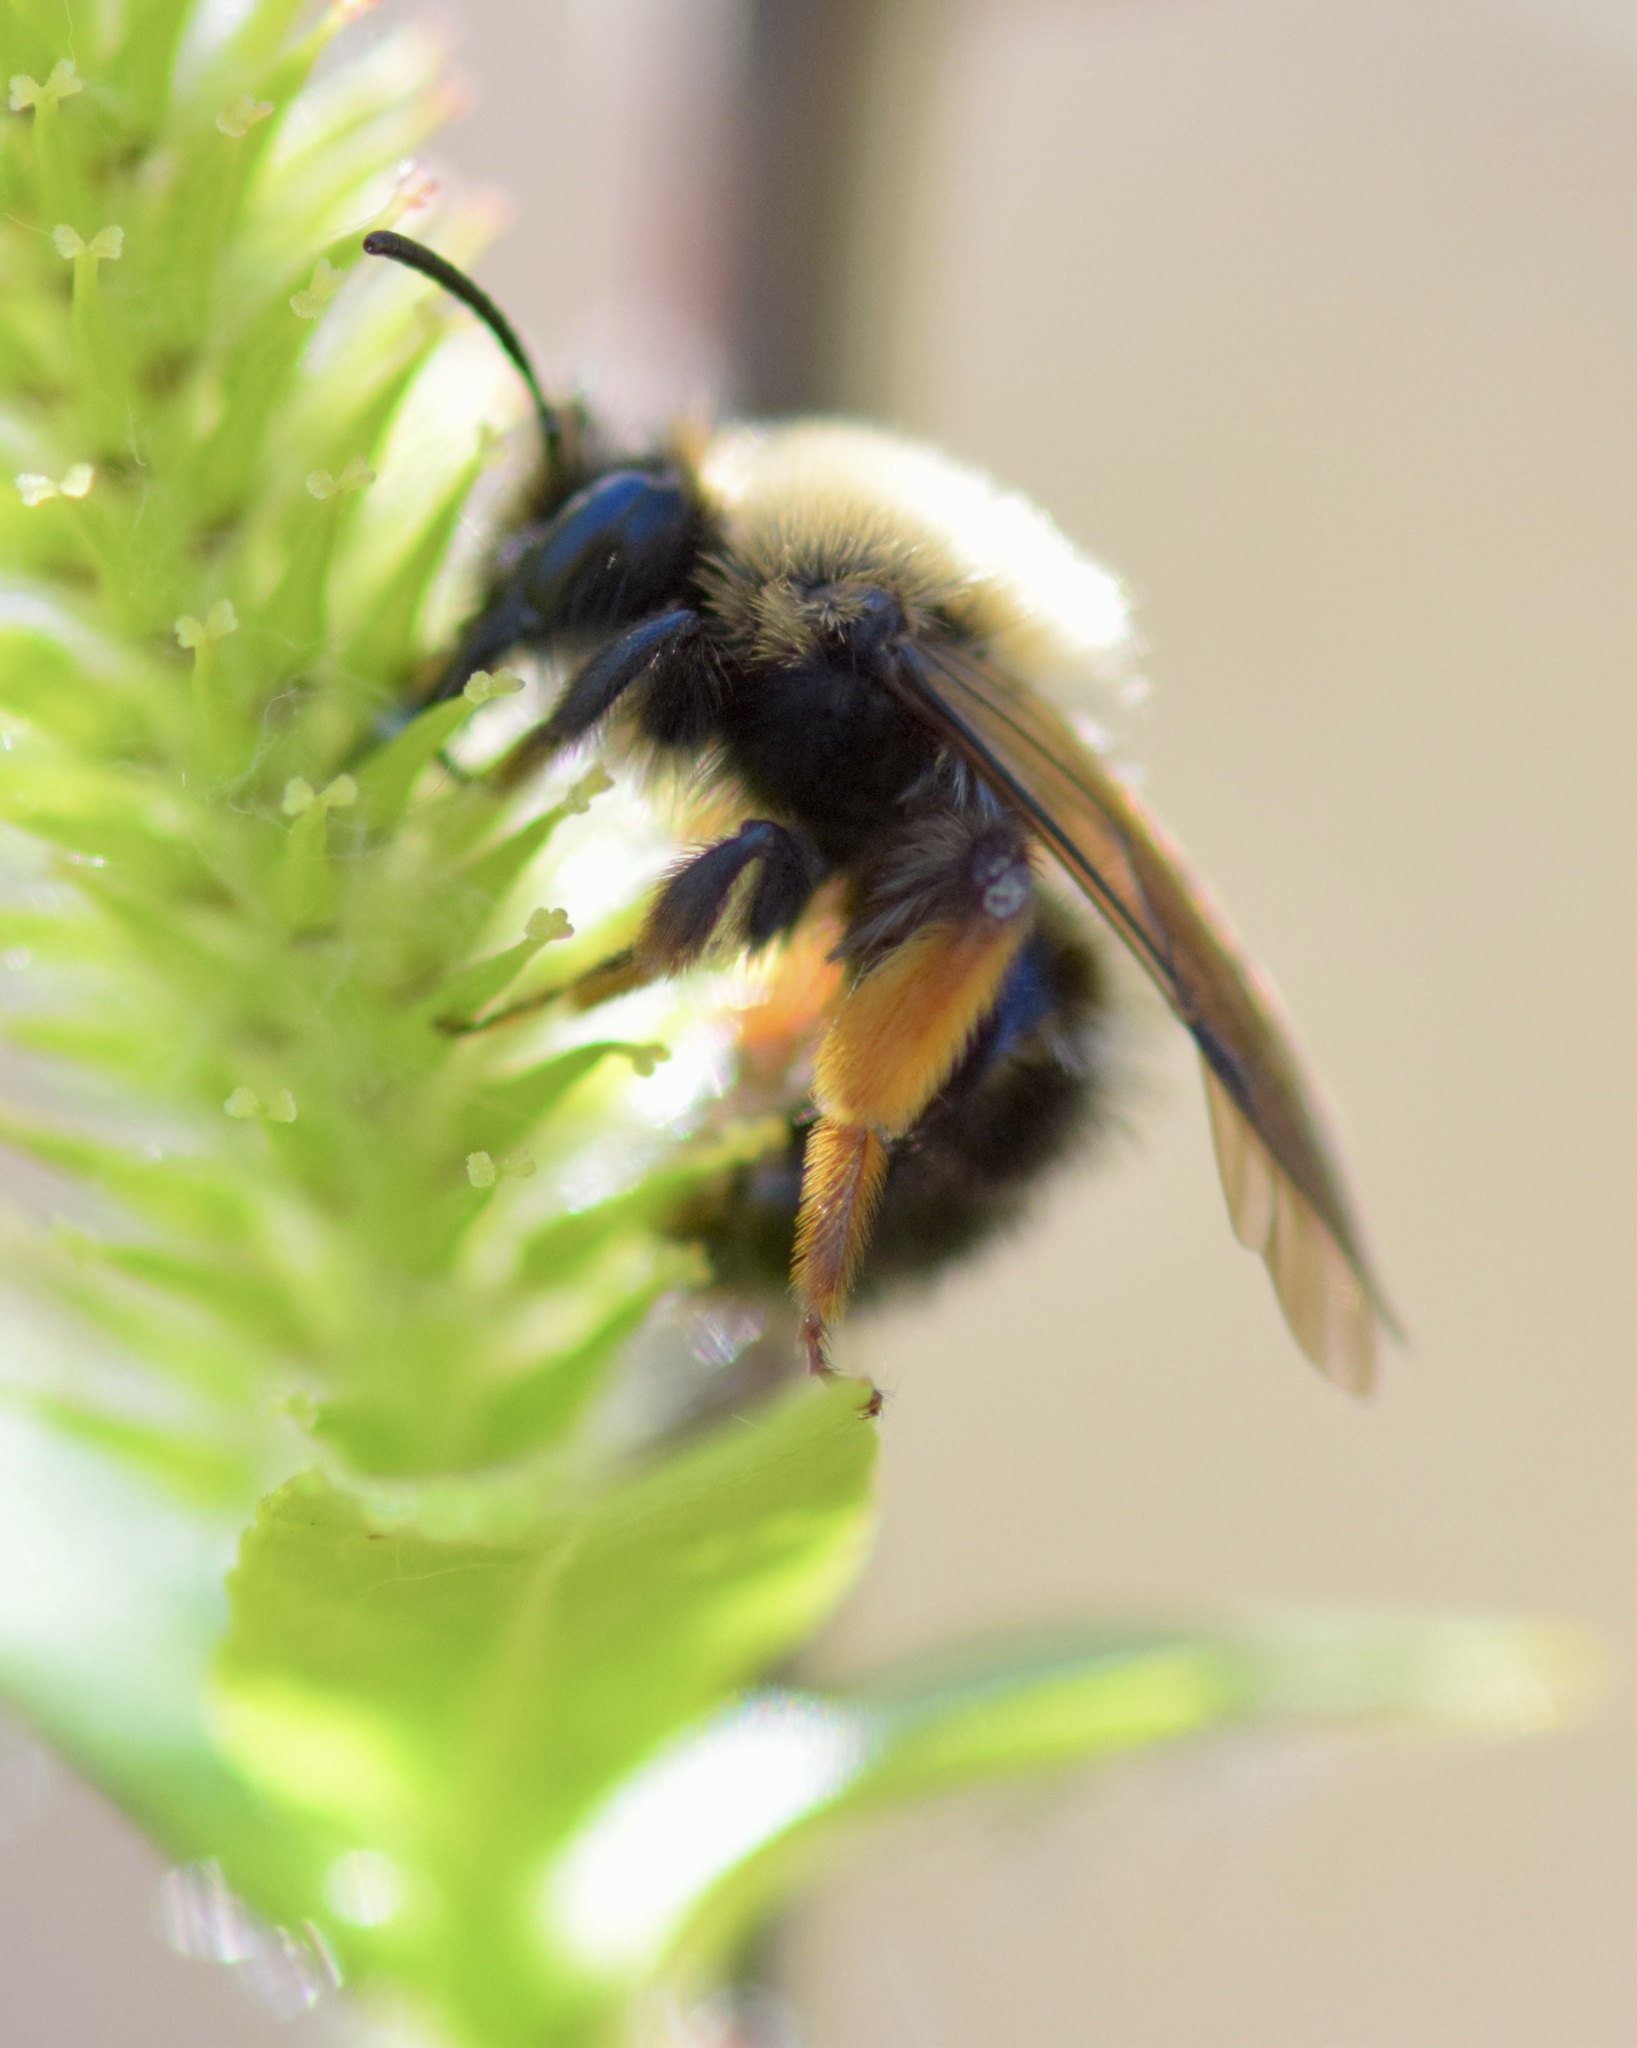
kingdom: Animalia
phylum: Arthropoda
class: Insecta
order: Hymenoptera
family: Andrenidae
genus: Andrena
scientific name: Andrena clarkella
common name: Clarke's mining bee
